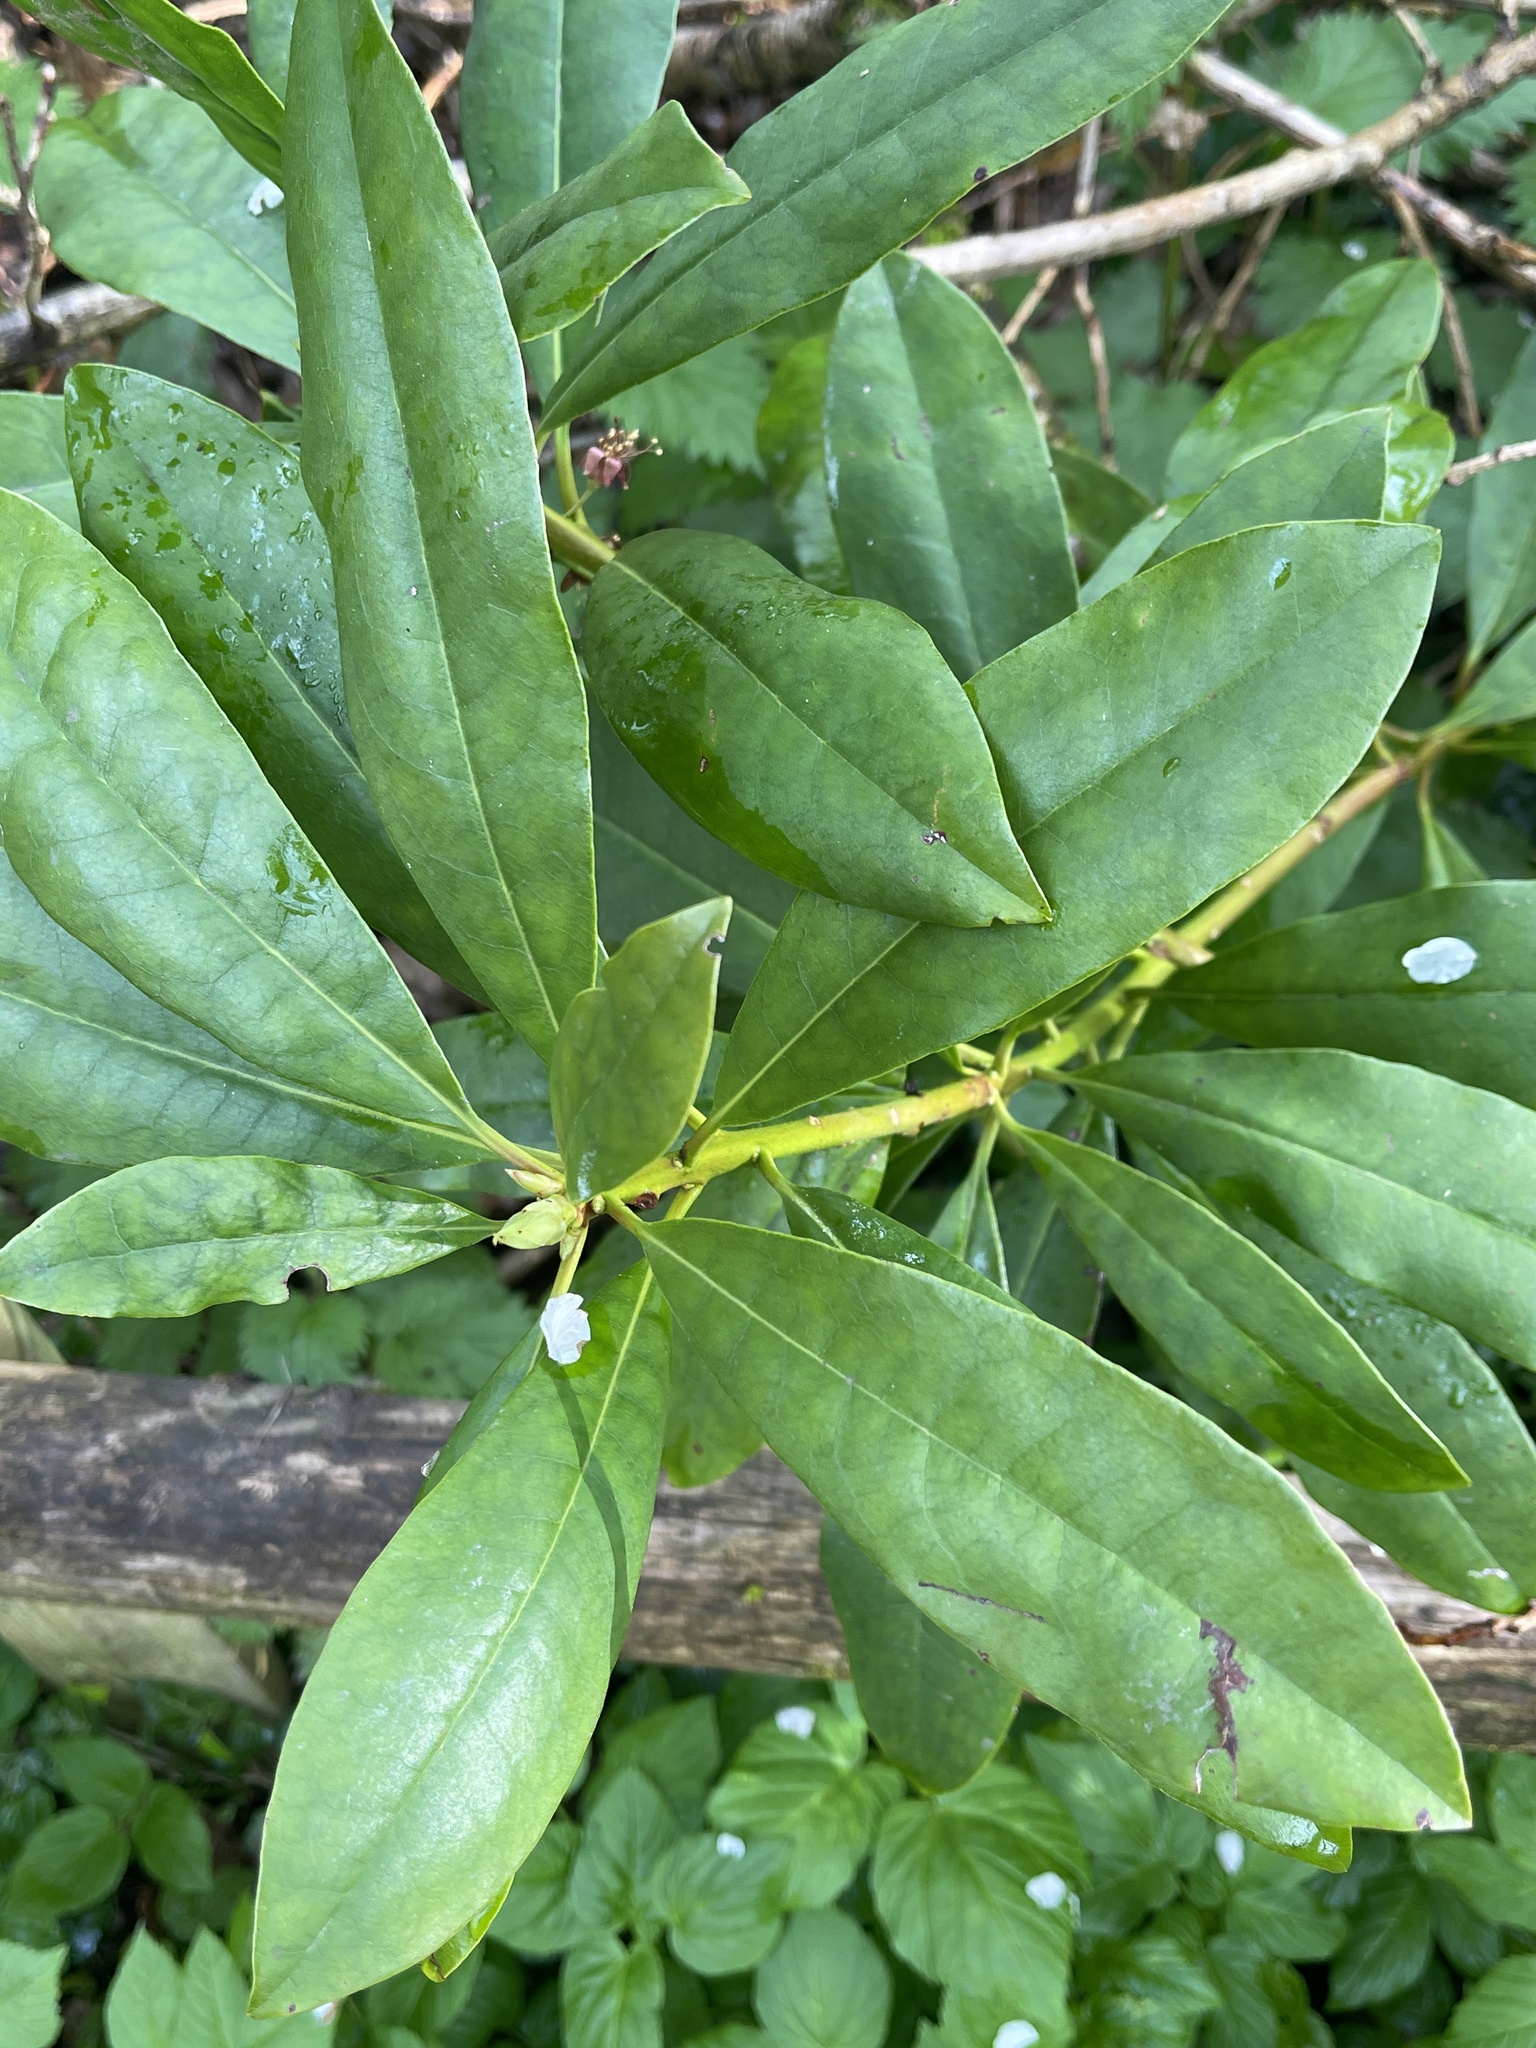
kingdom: Plantae
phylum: Tracheophyta
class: Magnoliopsida
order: Ericales
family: Ericaceae
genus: Rhododendron
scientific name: Rhododendron ponticum
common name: Rhododendron
